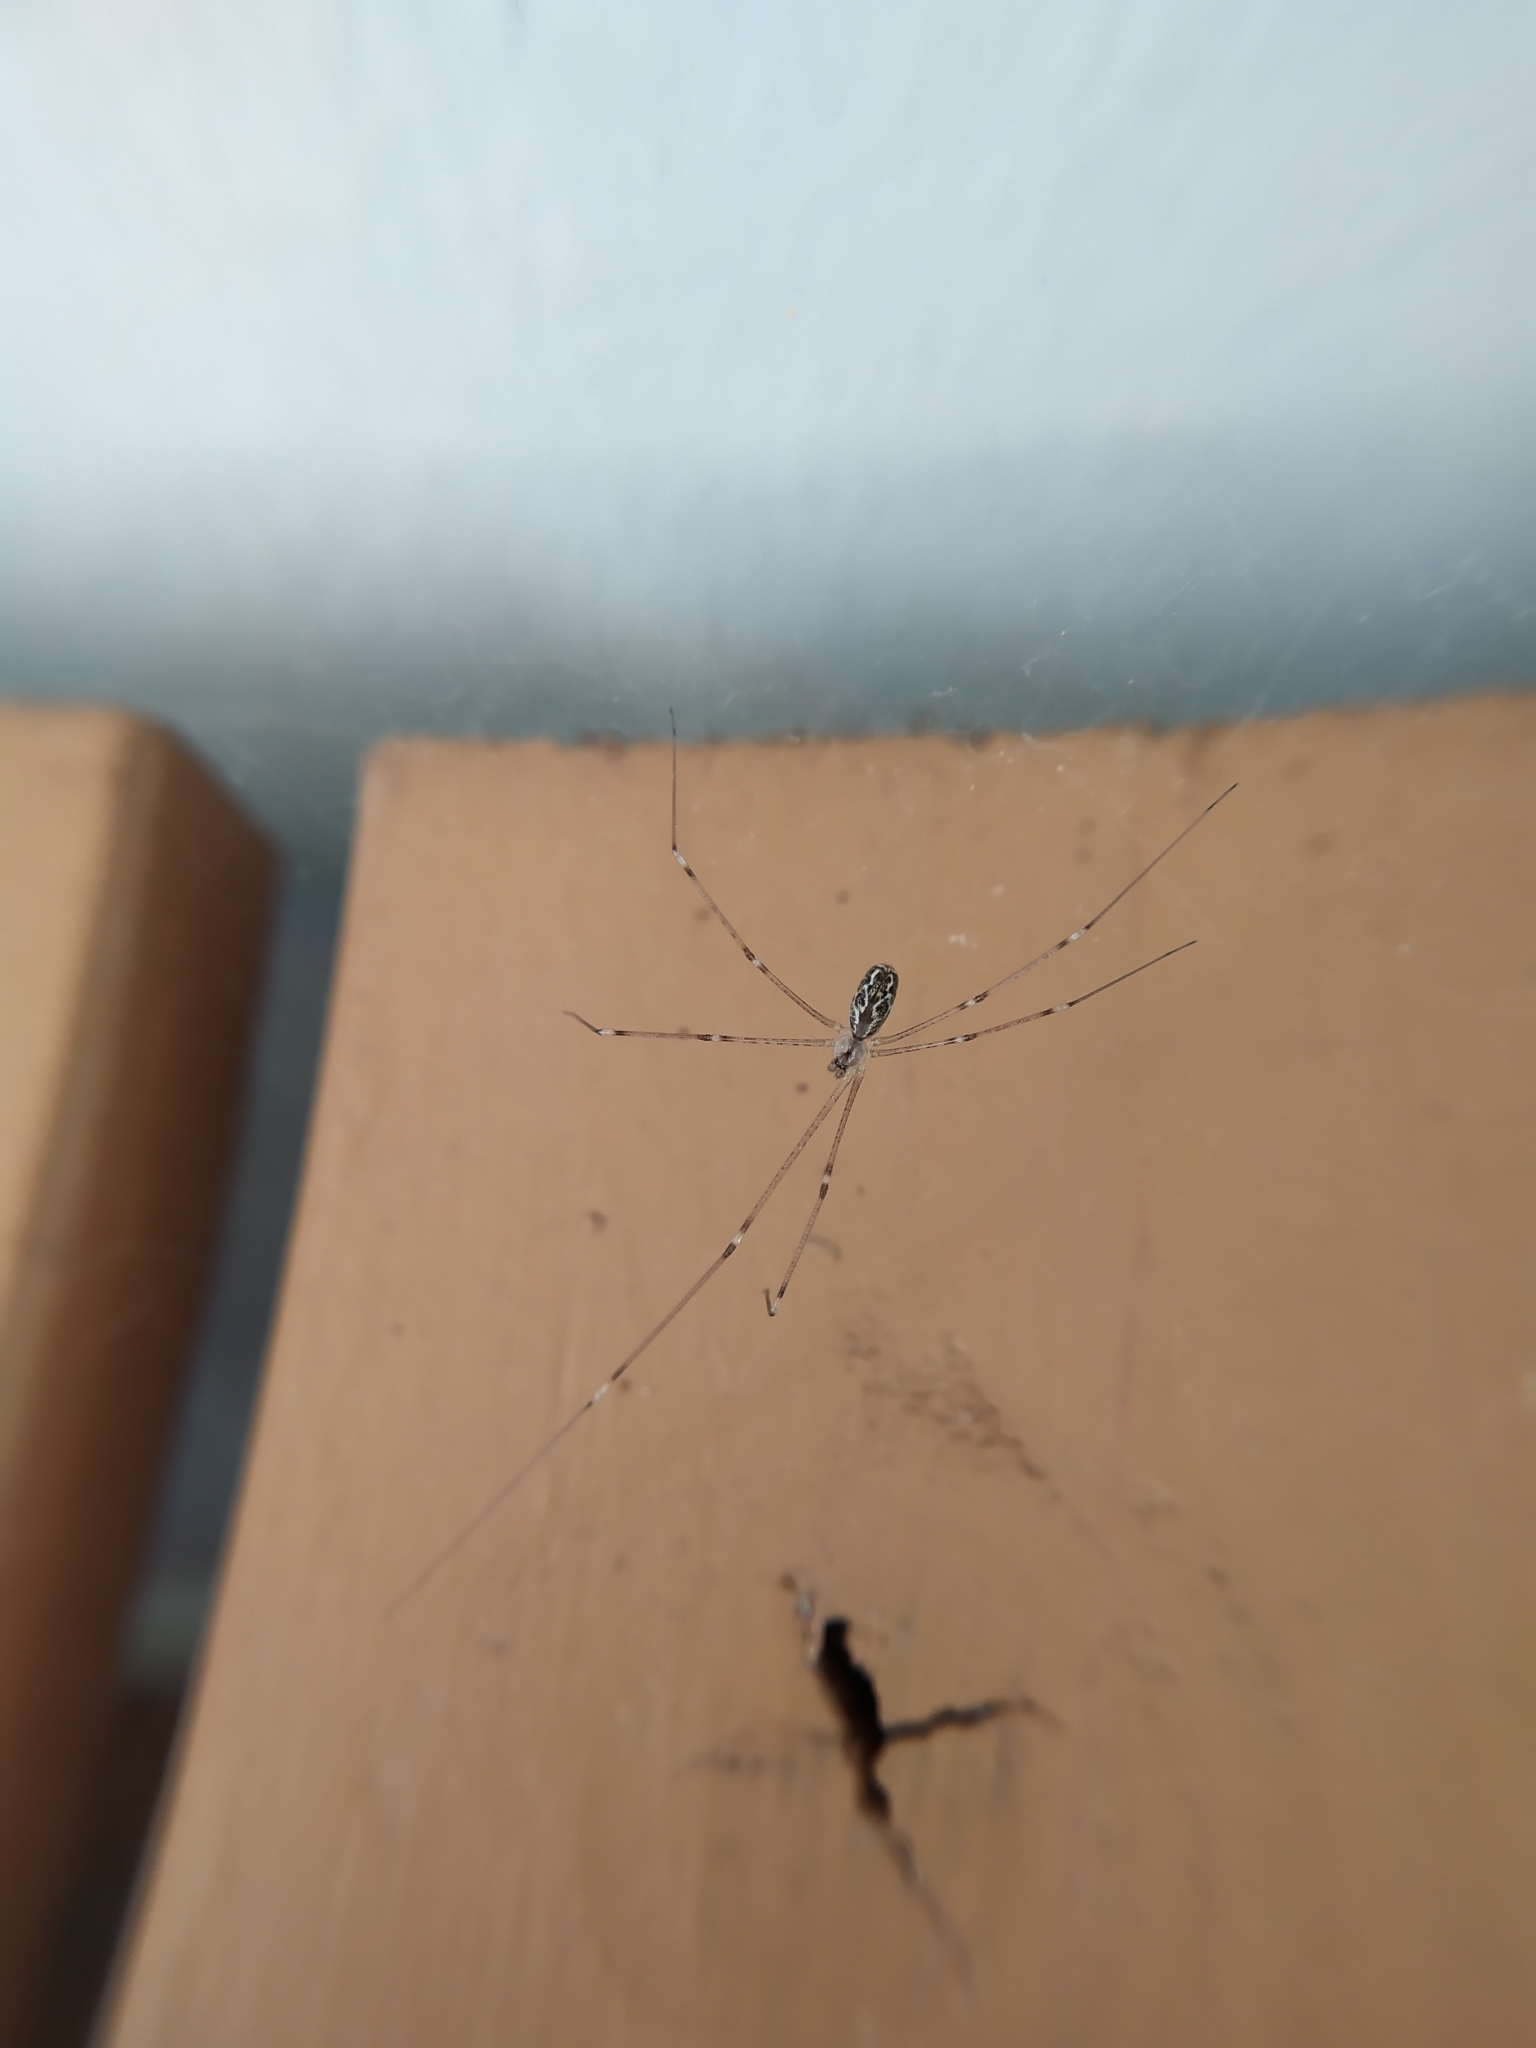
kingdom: Animalia
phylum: Arthropoda
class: Arachnida
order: Araneae
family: Pholcidae
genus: Holocnemus
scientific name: Holocnemus pluchei
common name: Marbled cellar spider
